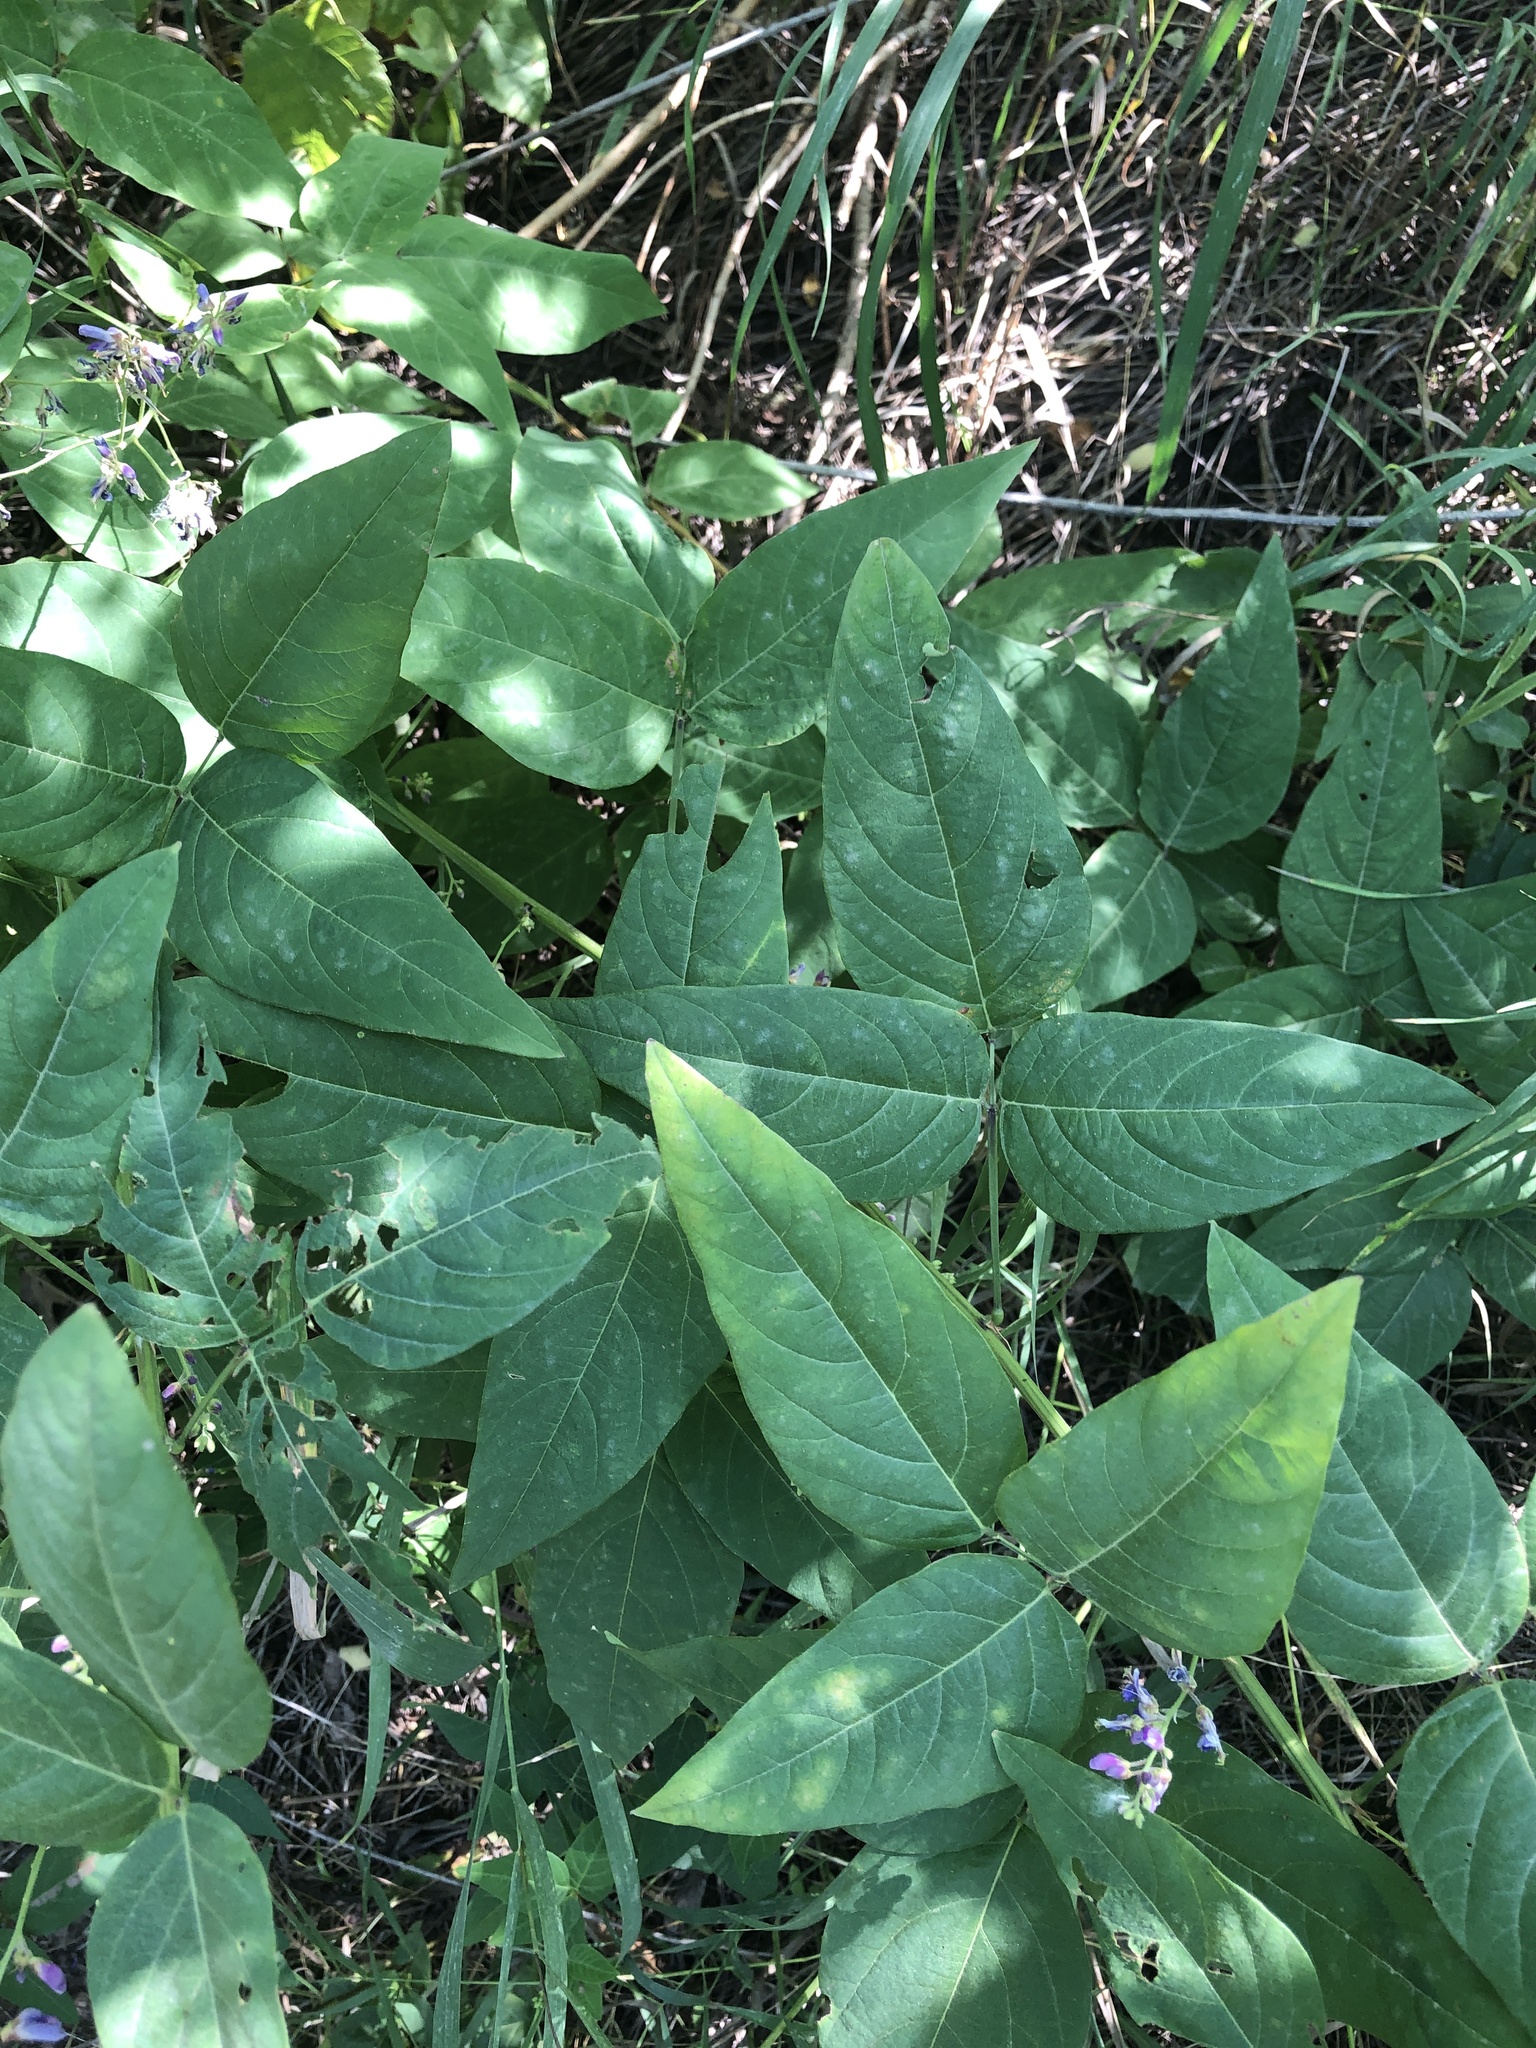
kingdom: Plantae
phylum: Tracheophyta
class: Magnoliopsida
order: Fabales
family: Fabaceae
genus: Desmodium
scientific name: Desmodium cuspidatum
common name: Big tick trefoil
